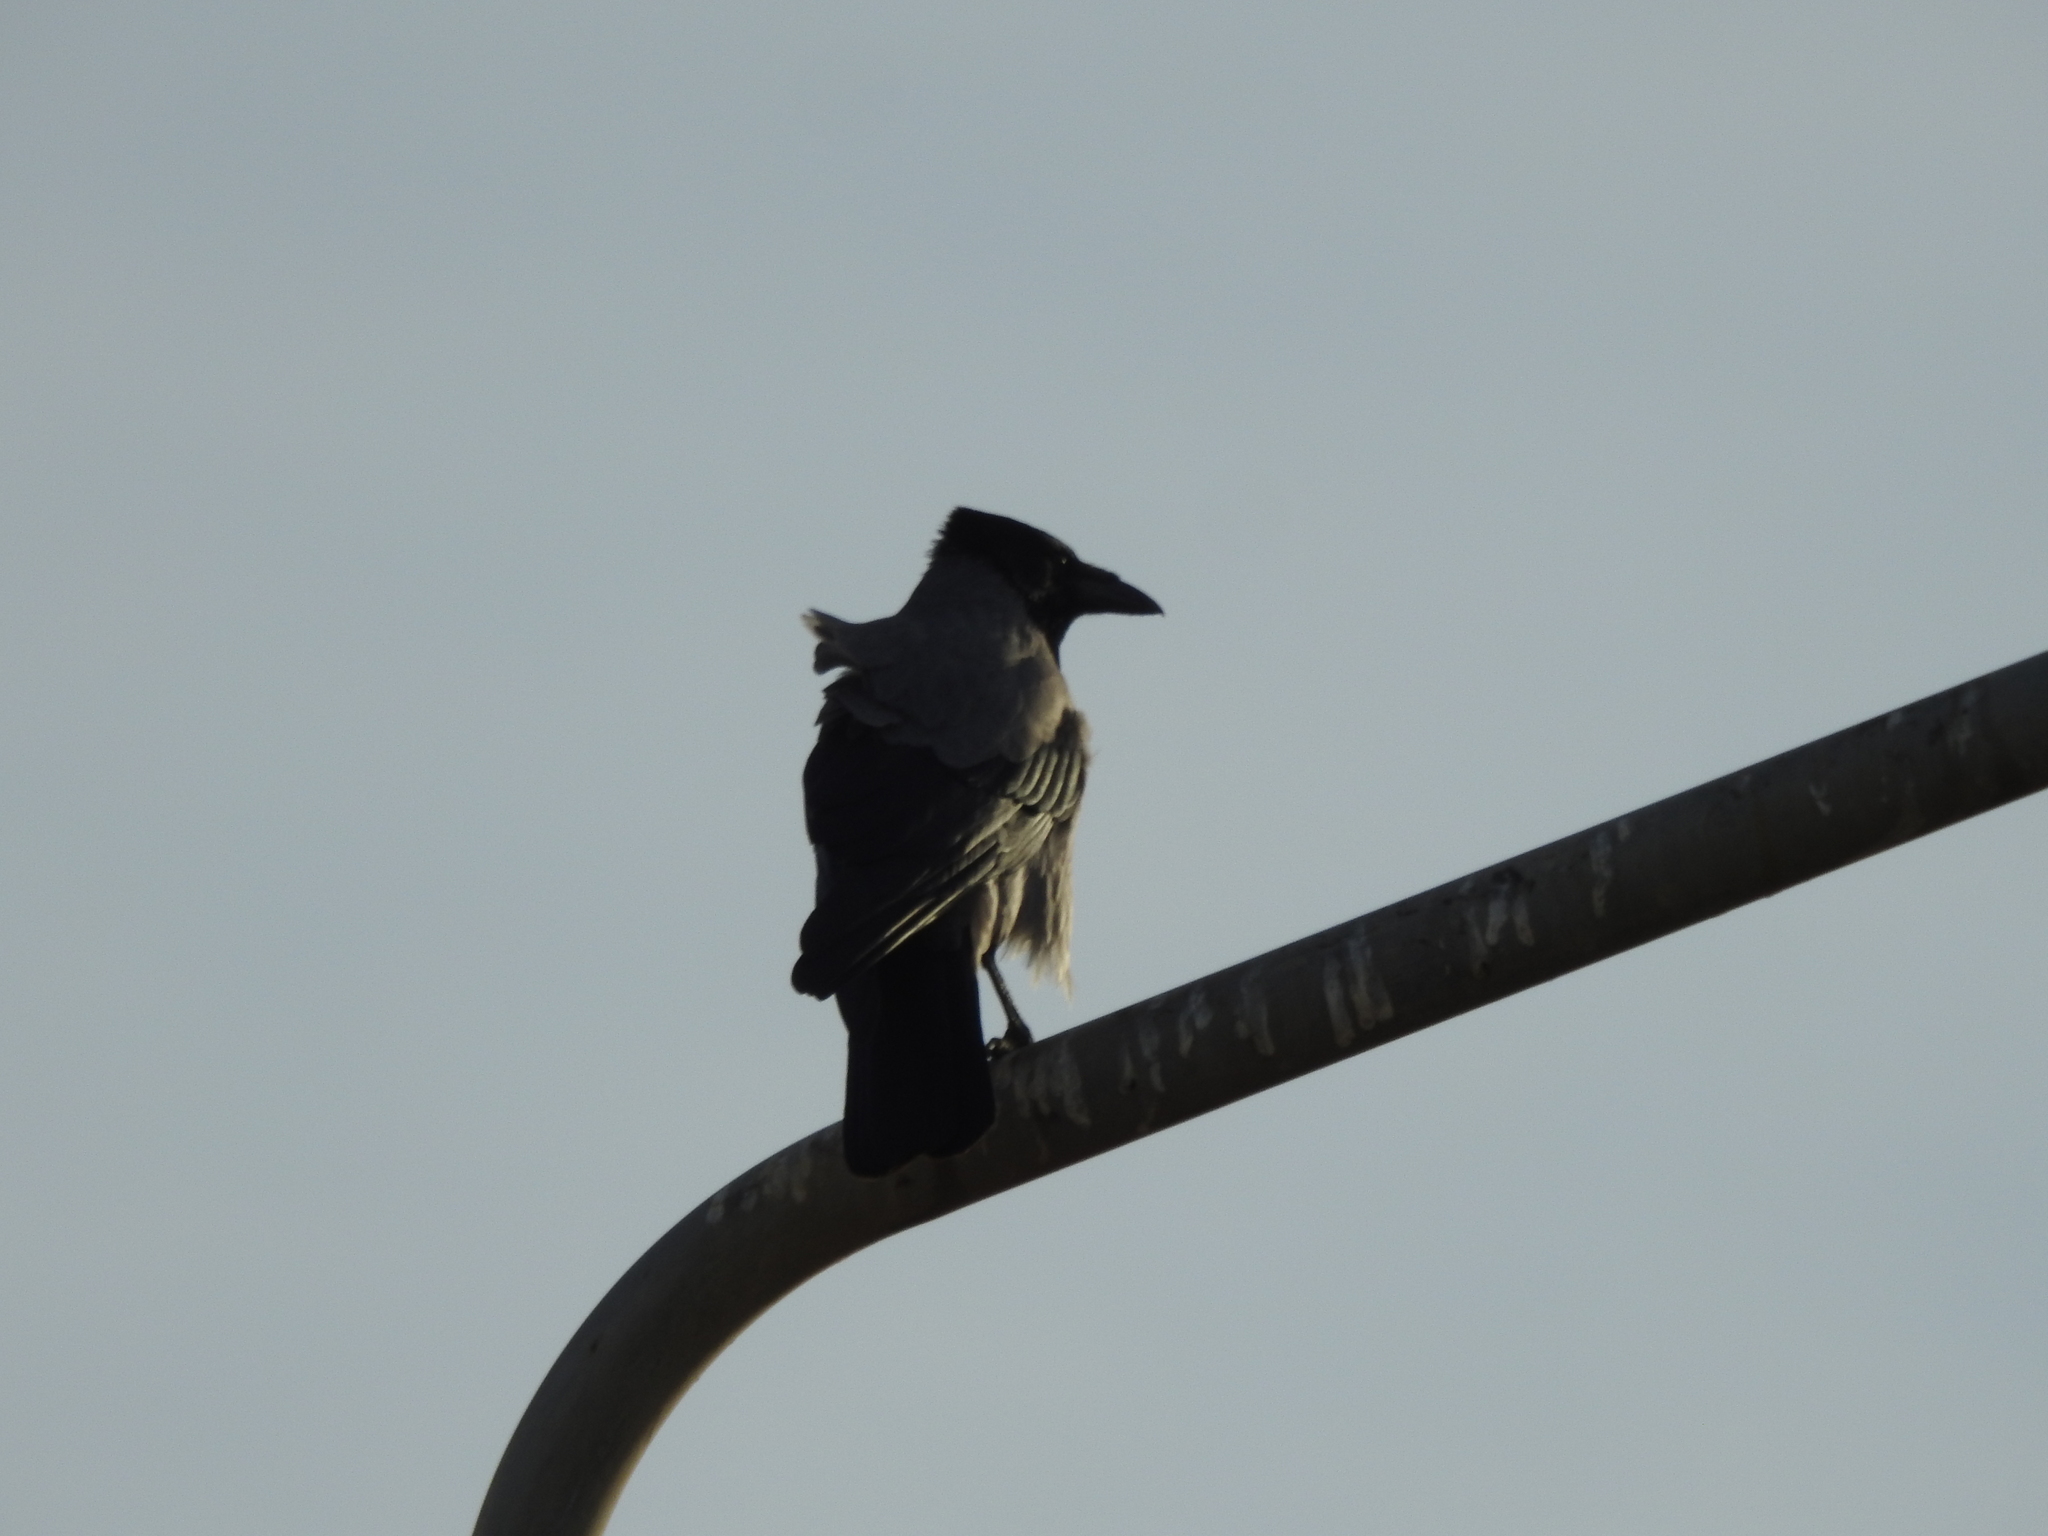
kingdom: Animalia
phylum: Chordata
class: Aves
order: Passeriformes
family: Corvidae
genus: Corvus
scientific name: Corvus cornix
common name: Hooded crow
